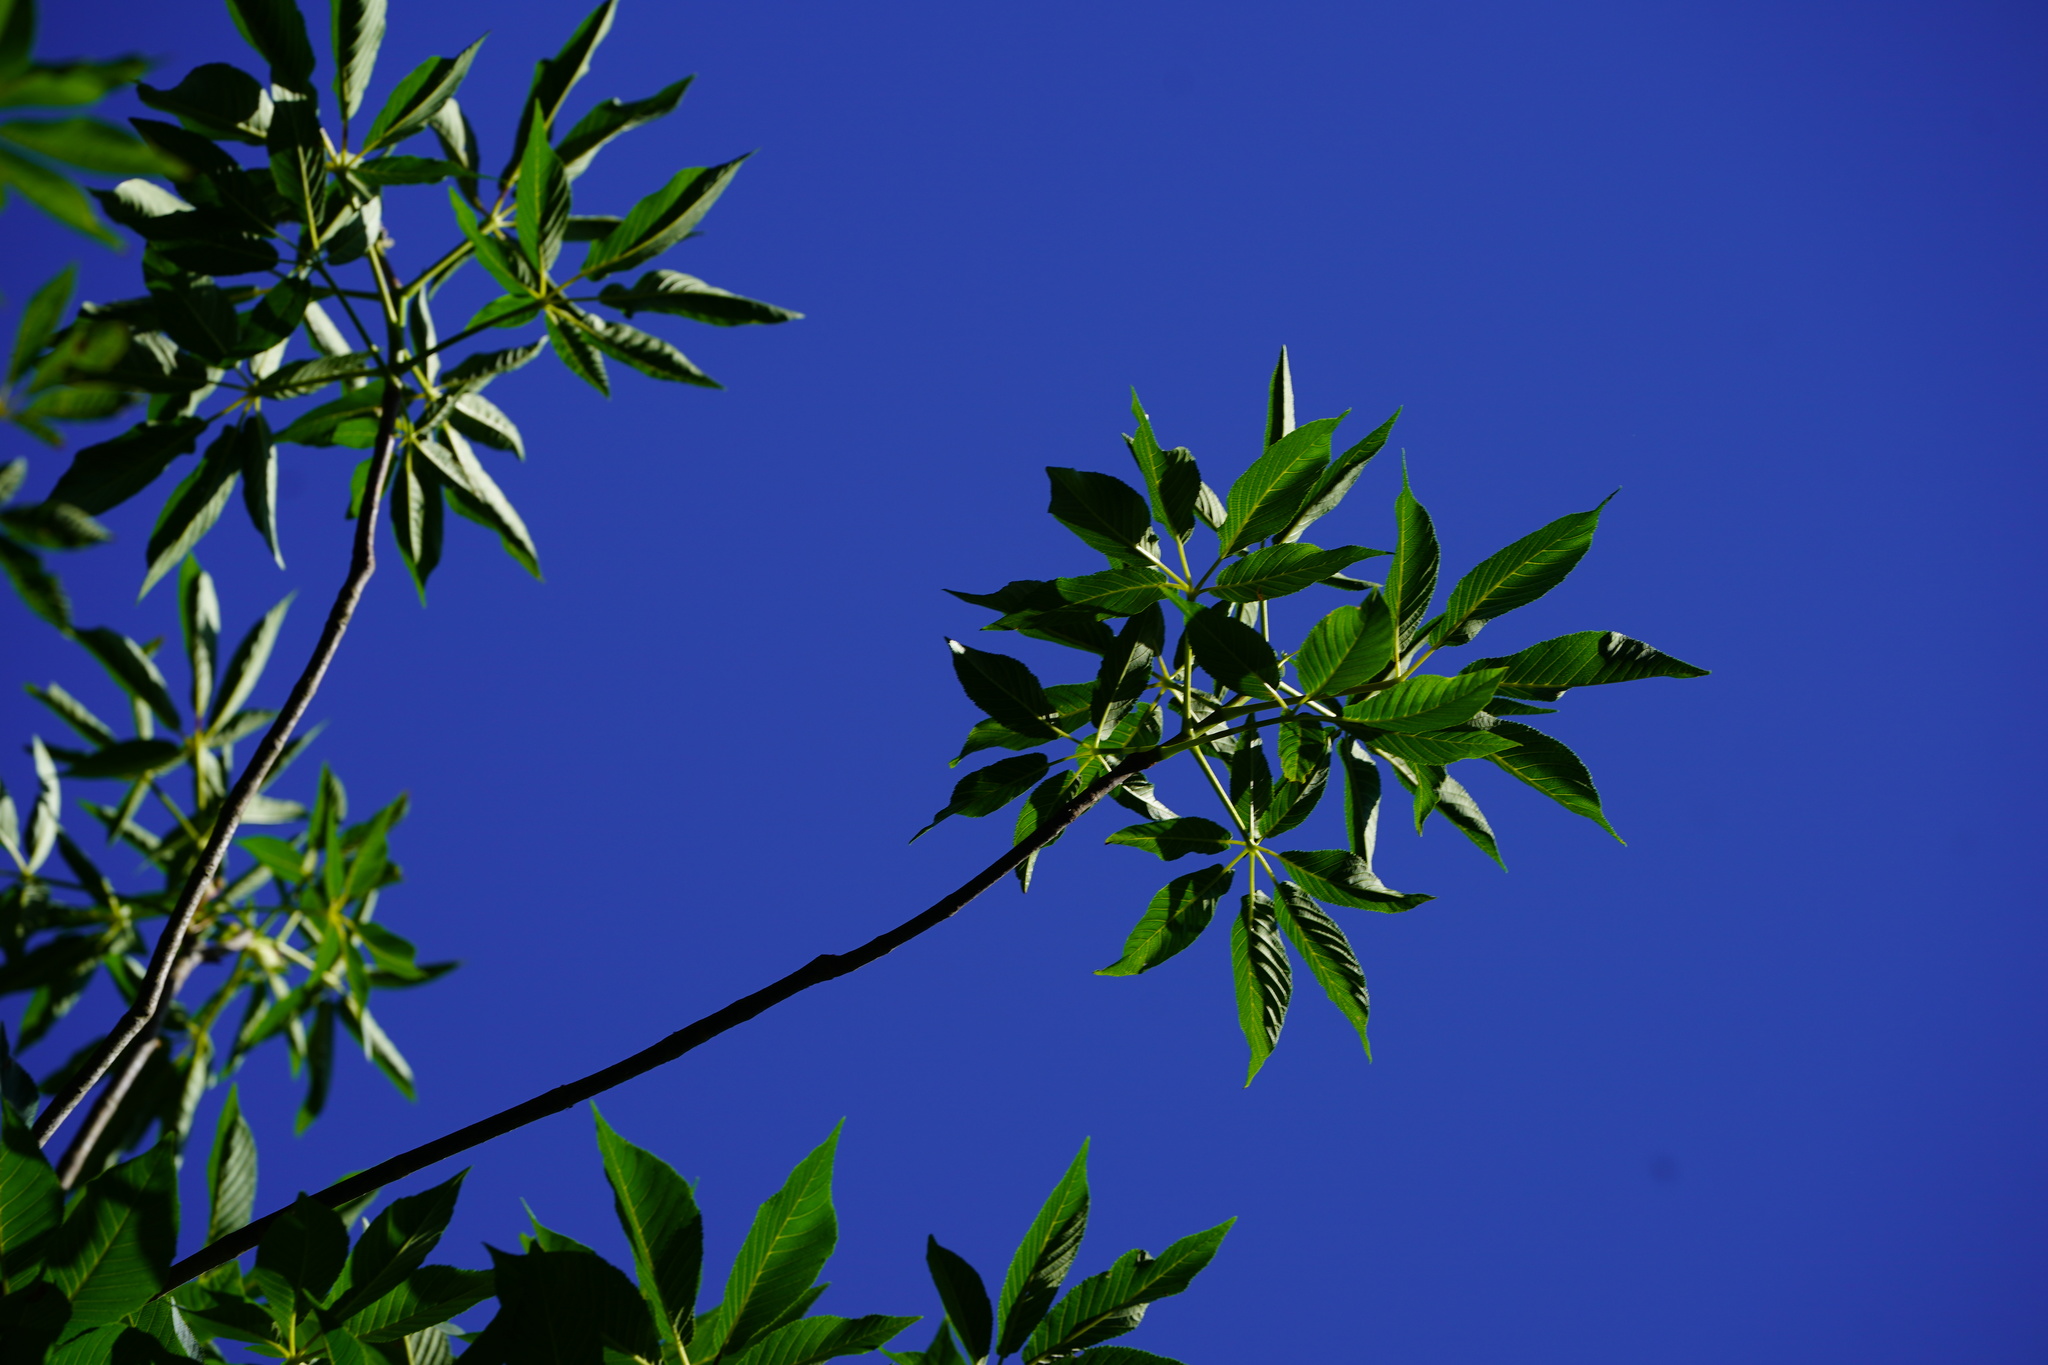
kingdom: Plantae
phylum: Tracheophyta
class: Magnoliopsida
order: Sapindales
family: Sapindaceae
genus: Aesculus
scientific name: Aesculus californica
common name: California buckeye
